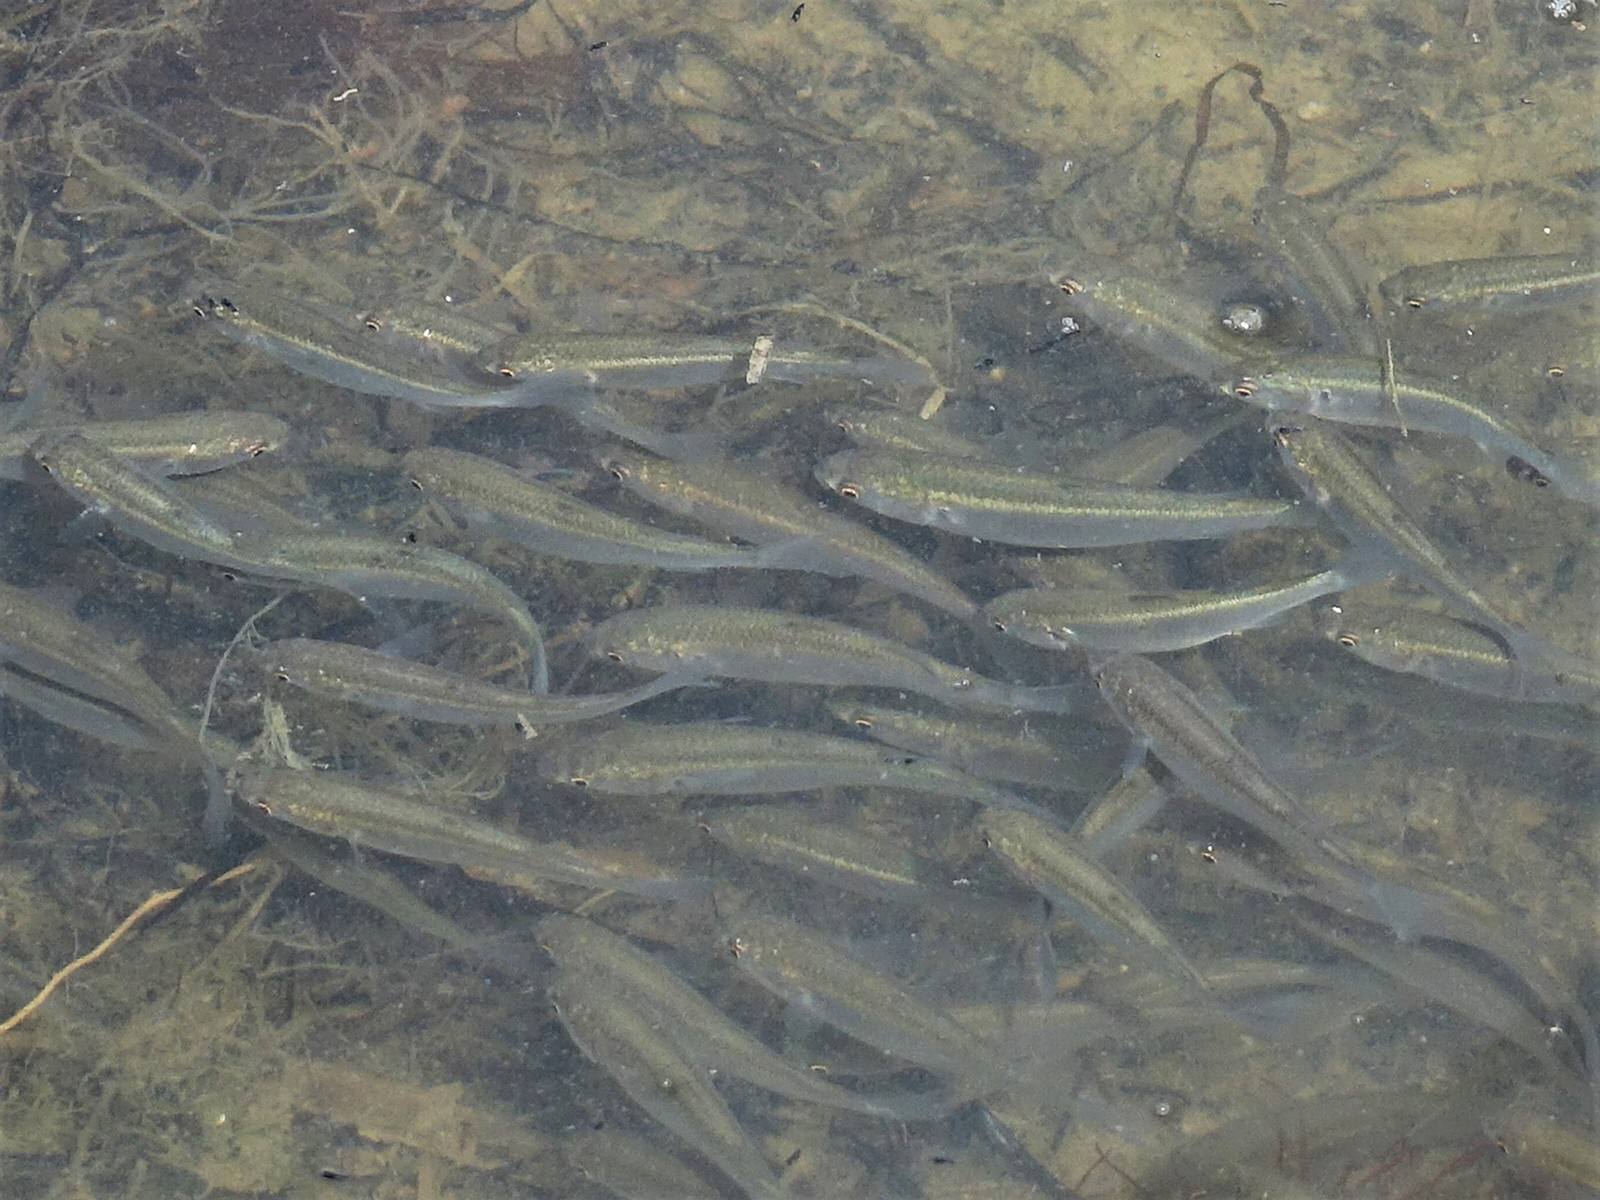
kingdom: Animalia
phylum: Chordata
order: Mugiliformes
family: Mugilidae
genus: Aldrichetta
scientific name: Aldrichetta forsteri
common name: Yellow-eye mullet
